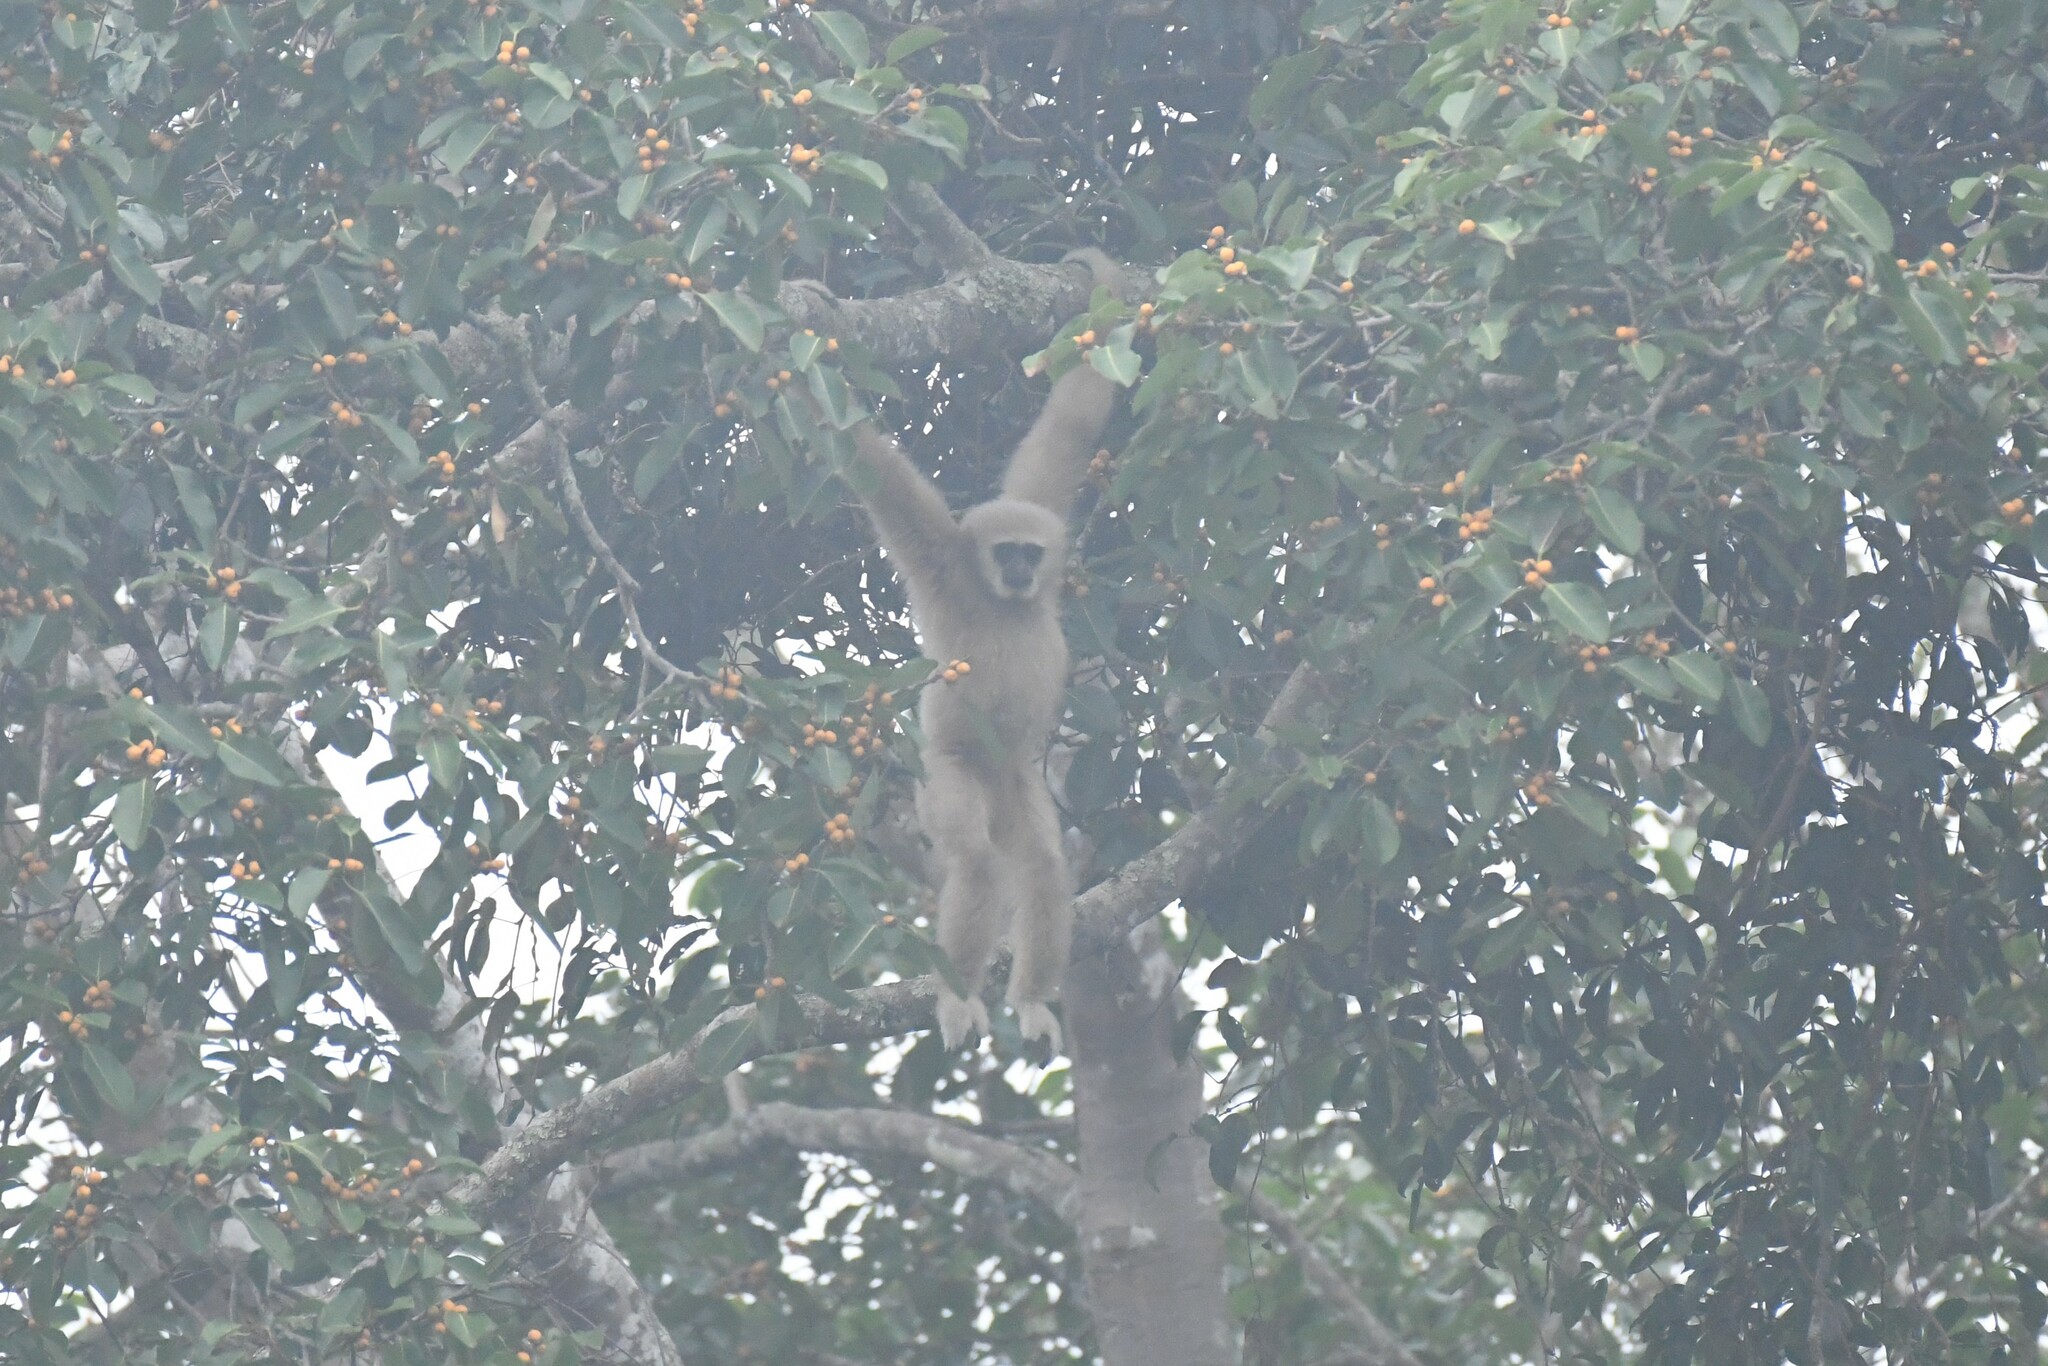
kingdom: Animalia
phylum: Chordata
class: Mammalia
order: Primates
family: Hylobatidae
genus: Hylobates
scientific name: Hylobates lar
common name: Lar gibbon
